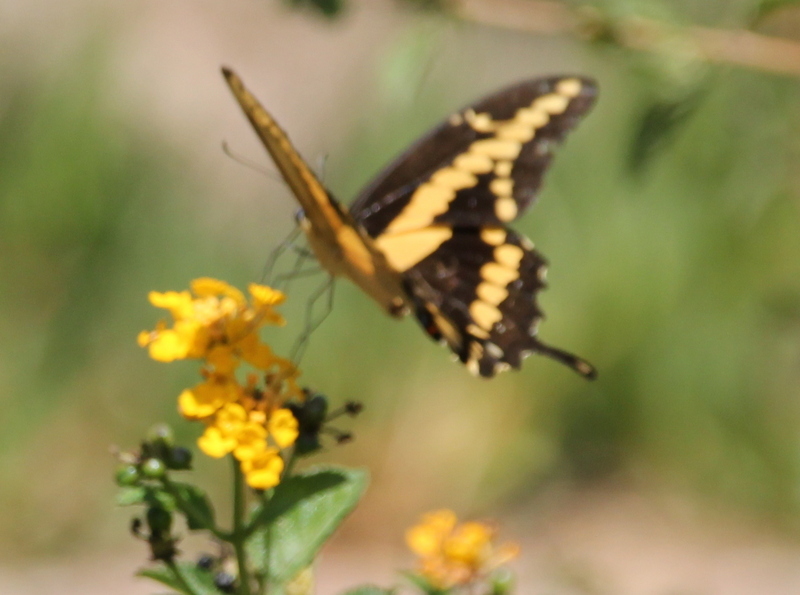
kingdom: Animalia
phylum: Arthropoda
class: Insecta
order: Lepidoptera
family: Papilionidae
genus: Papilio
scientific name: Papilio rumiko
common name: Western giant swallowtail
